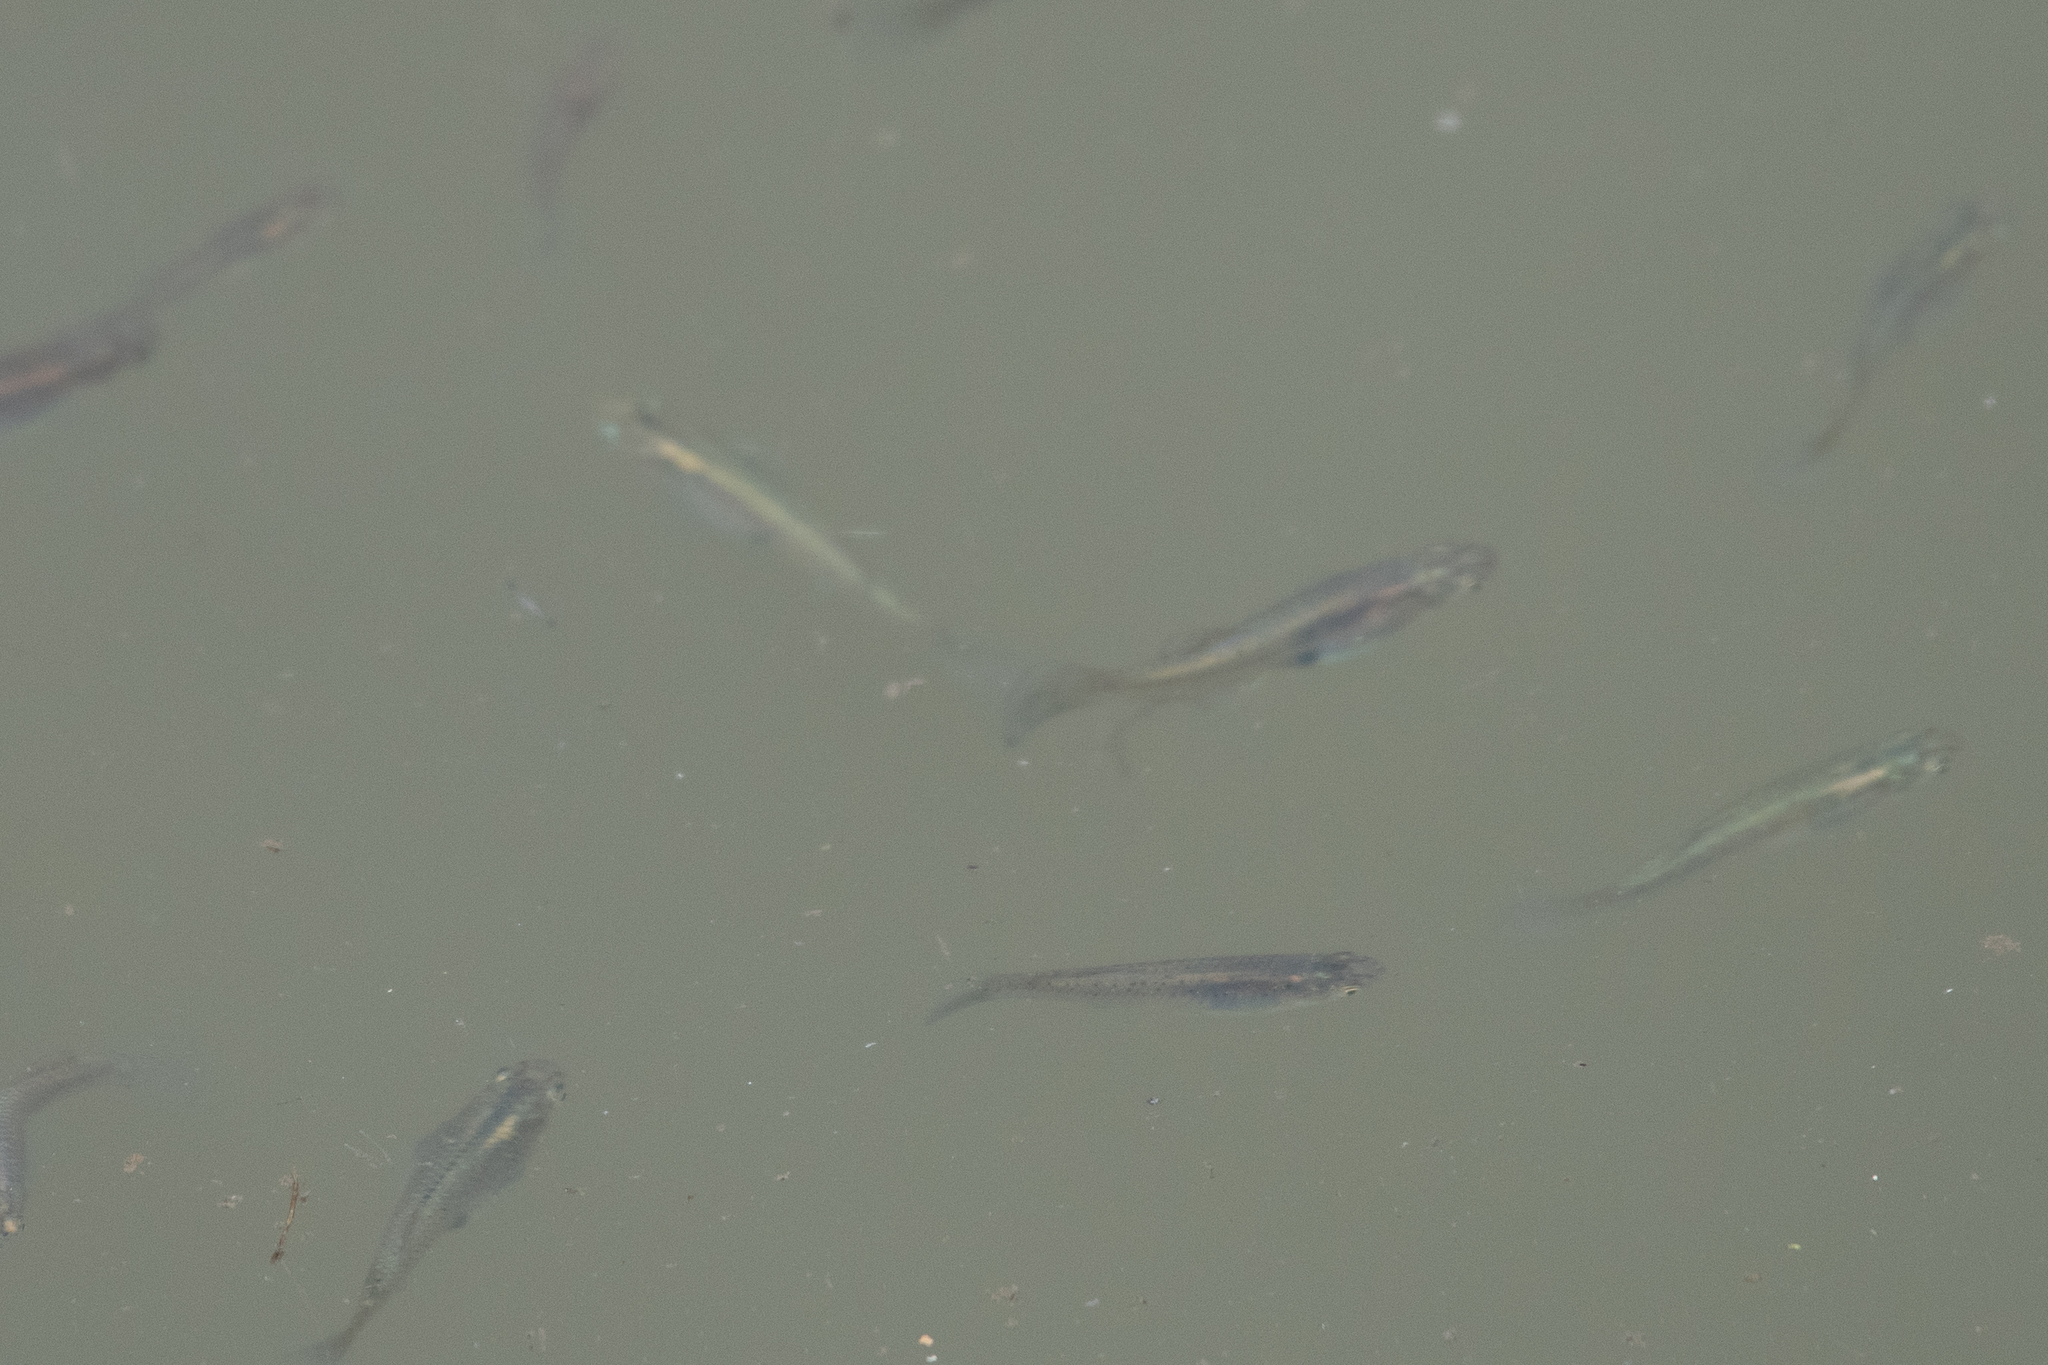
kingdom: Animalia
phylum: Chordata
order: Cyprinodontiformes
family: Poeciliidae
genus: Gambusia
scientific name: Gambusia affinis
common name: Mosquitofish
